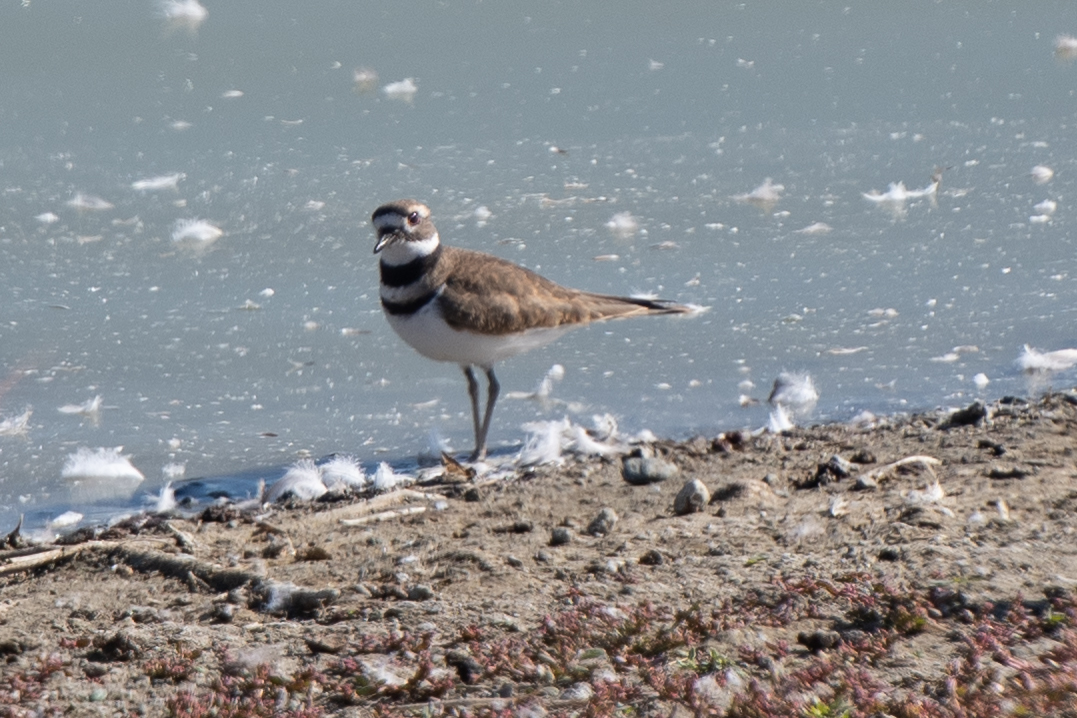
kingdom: Animalia
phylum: Chordata
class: Aves
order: Charadriiformes
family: Charadriidae
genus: Charadrius
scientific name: Charadrius vociferus
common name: Killdeer
